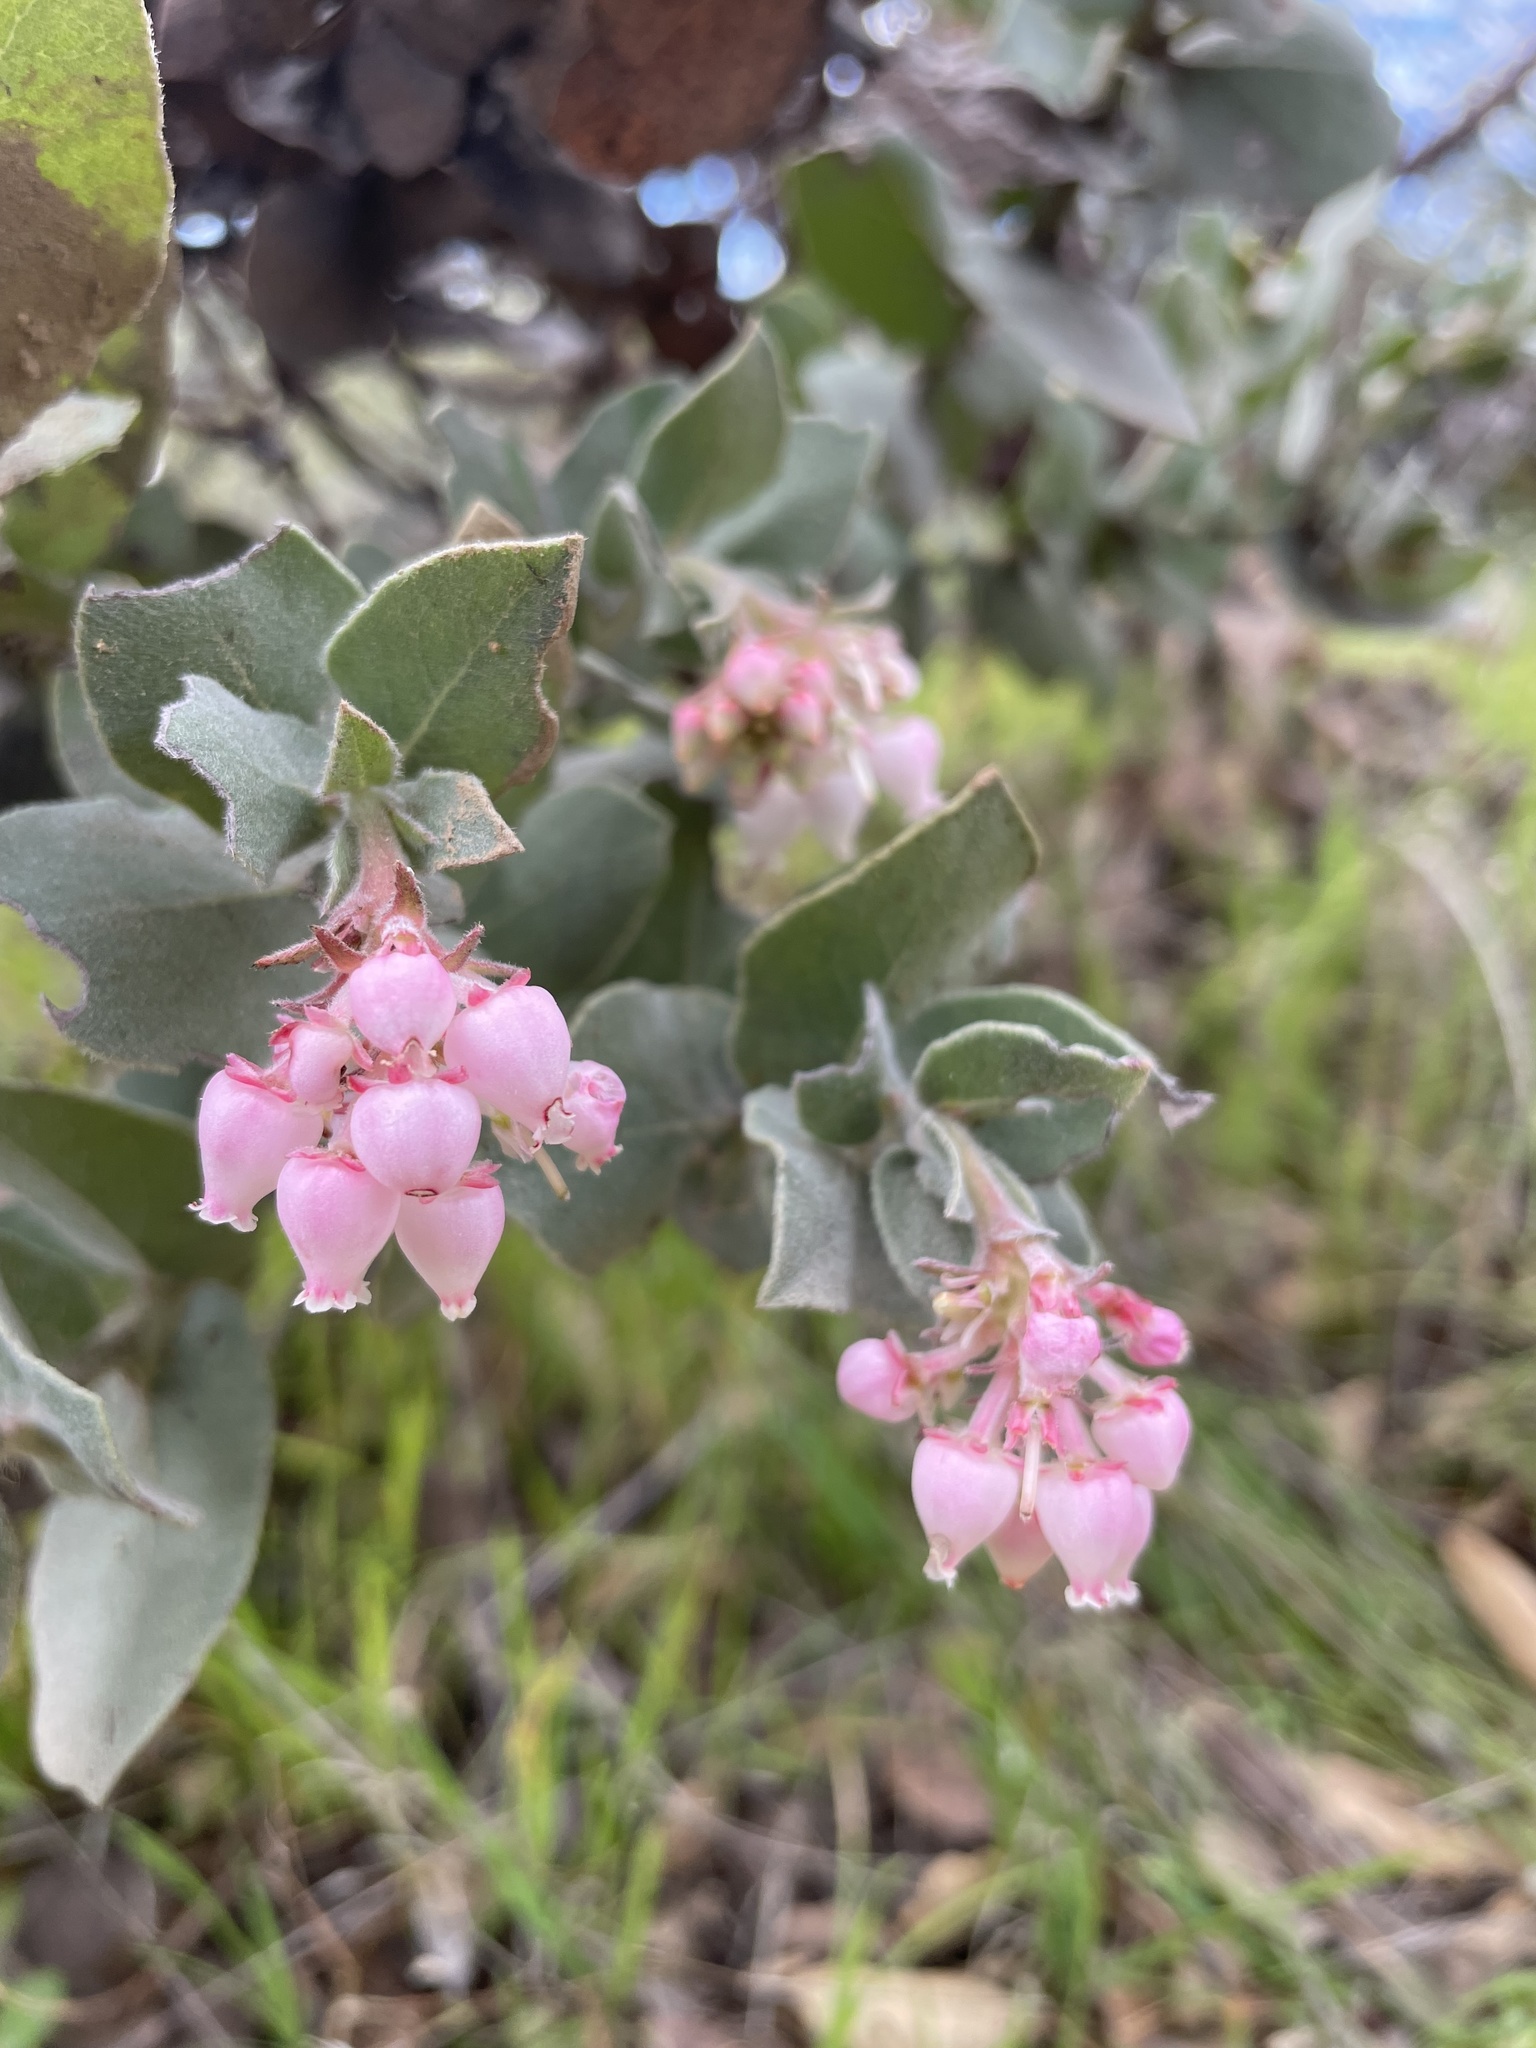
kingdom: Plantae
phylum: Tracheophyta
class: Magnoliopsida
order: Ericales
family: Ericaceae
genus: Arctostaphylos
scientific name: Arctostaphylos auriculata
